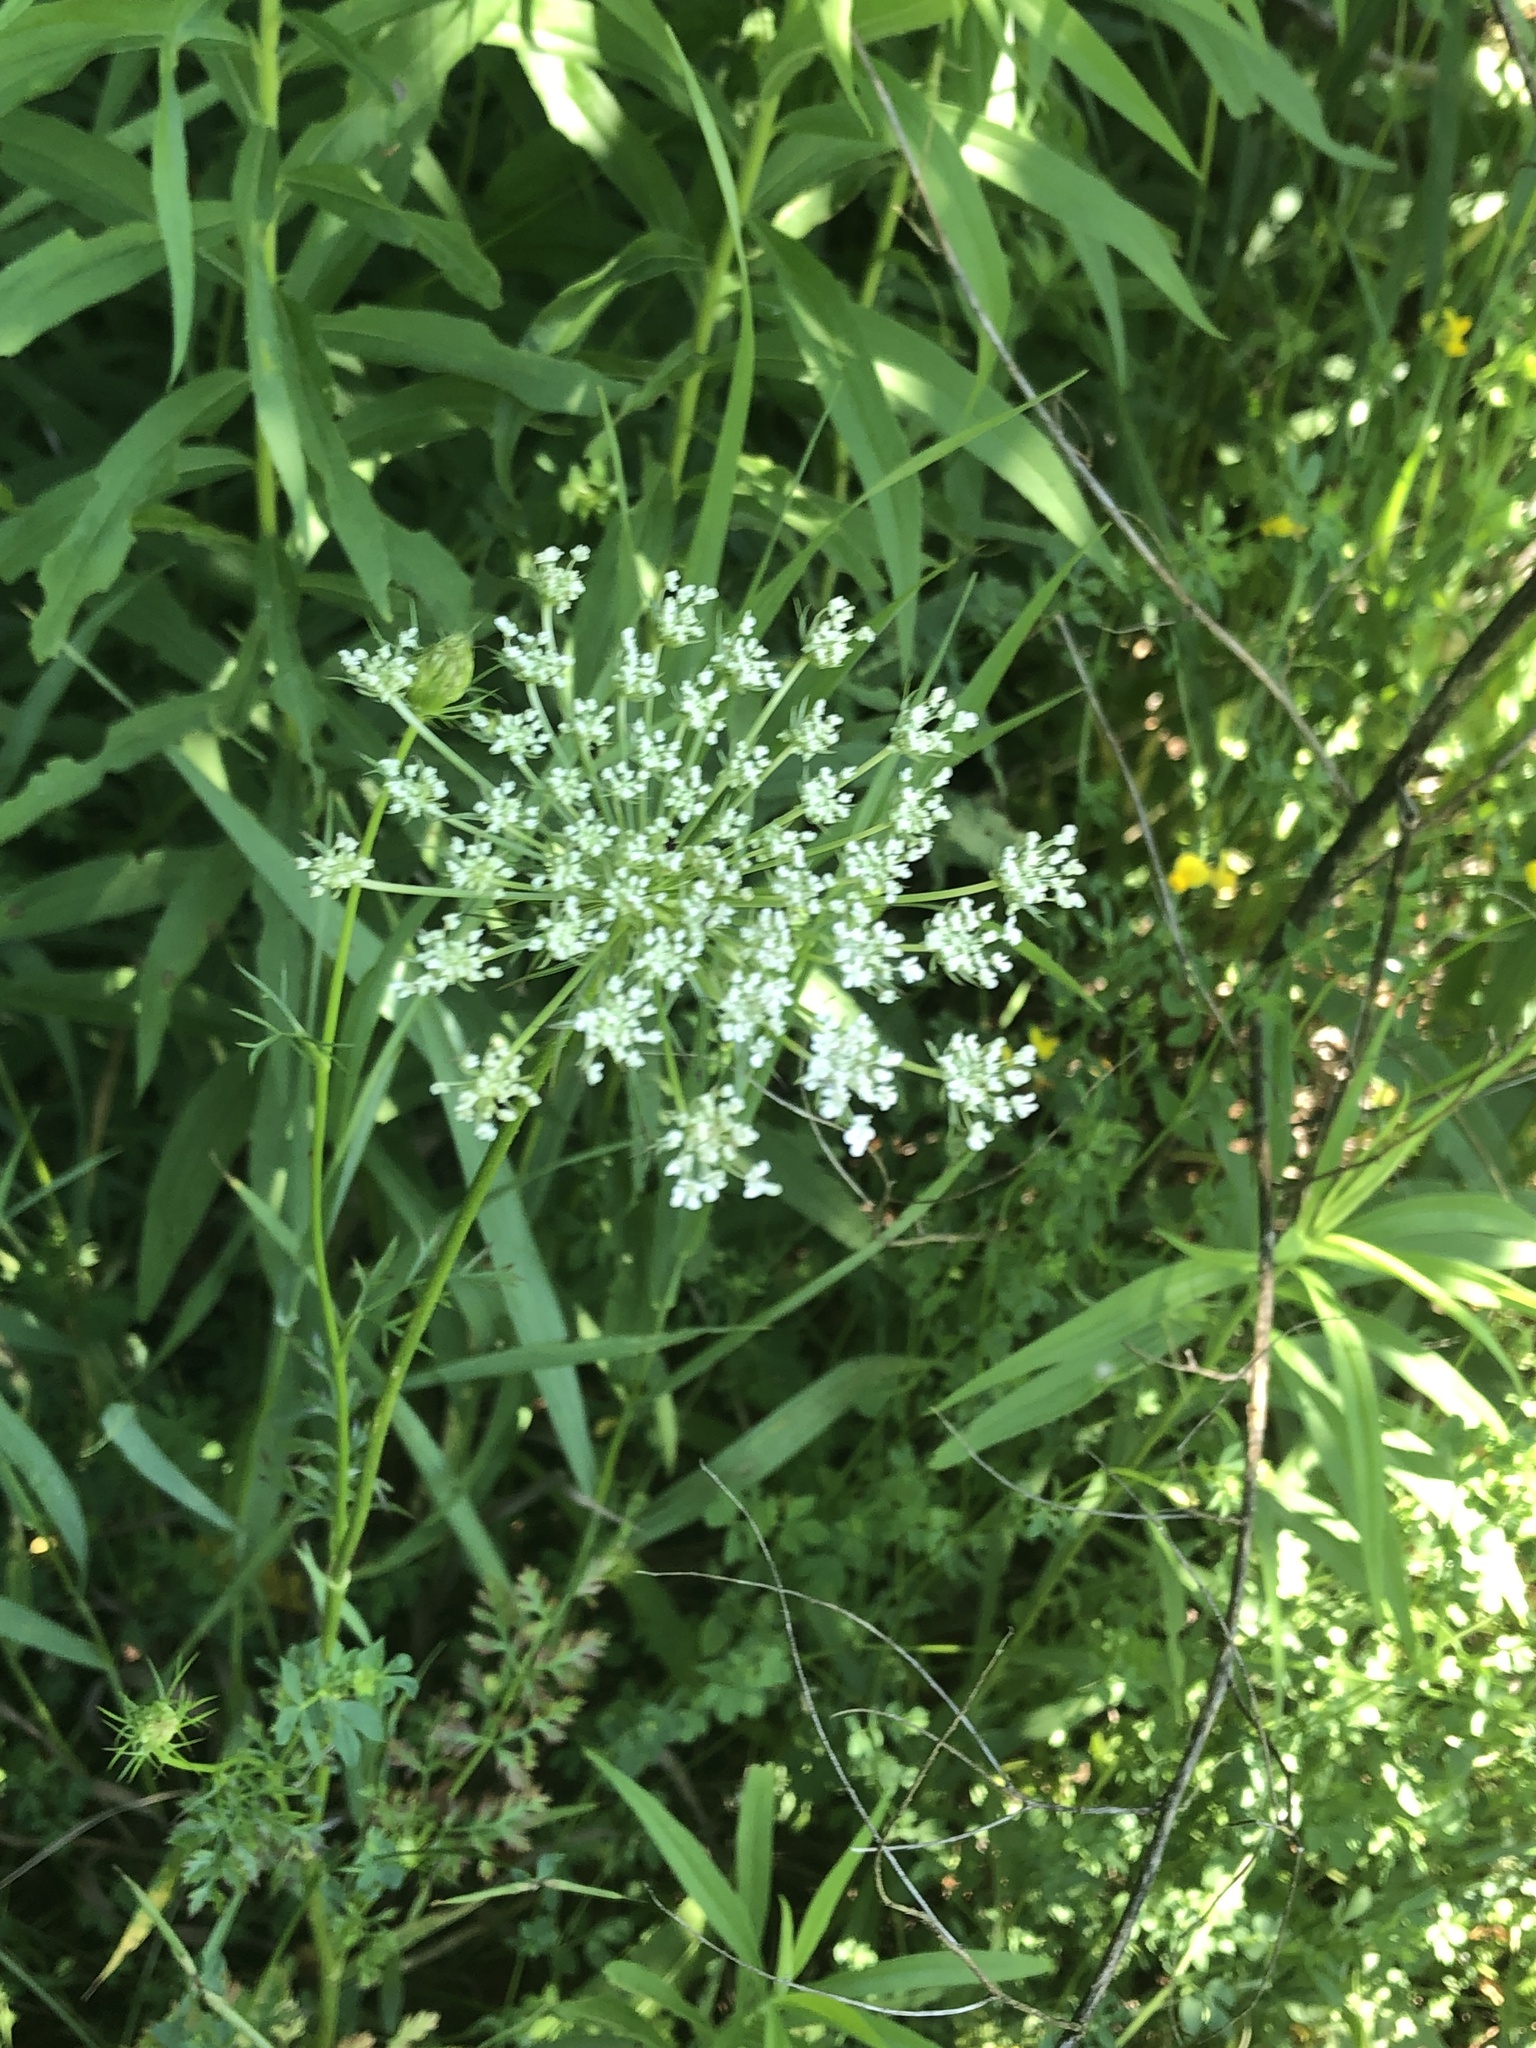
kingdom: Plantae
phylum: Tracheophyta
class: Magnoliopsida
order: Apiales
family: Apiaceae
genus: Daucus
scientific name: Daucus carota
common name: Wild carrot
